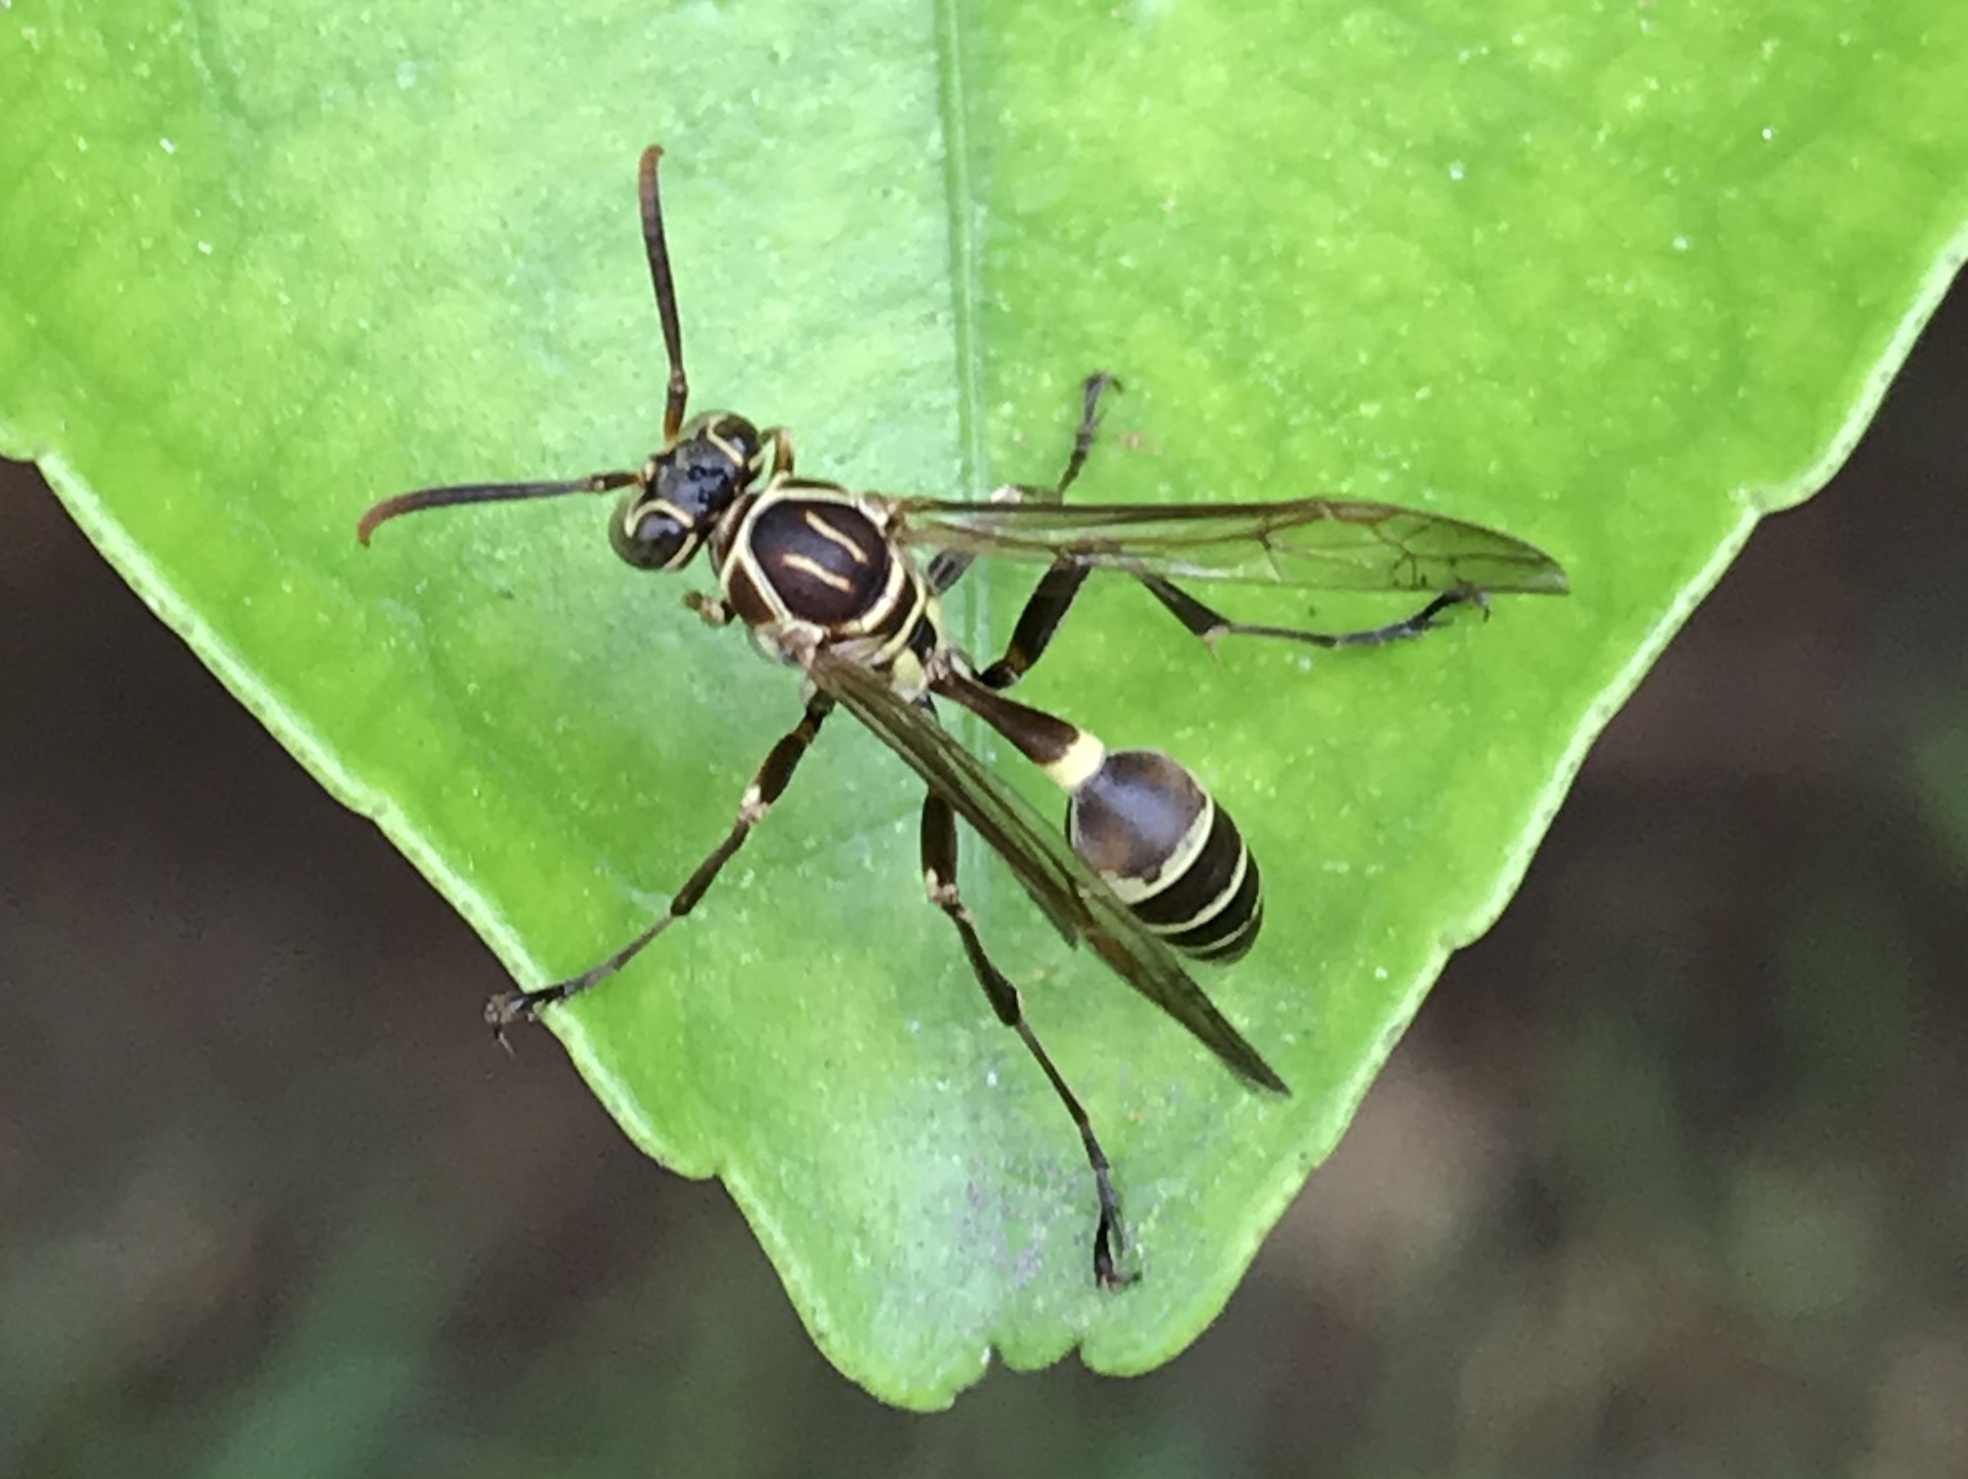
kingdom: Animalia
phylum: Arthropoda
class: Insecta
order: Hymenoptera
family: Vespidae
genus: Mischocyttarus
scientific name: Mischocyttarus mexicanus
